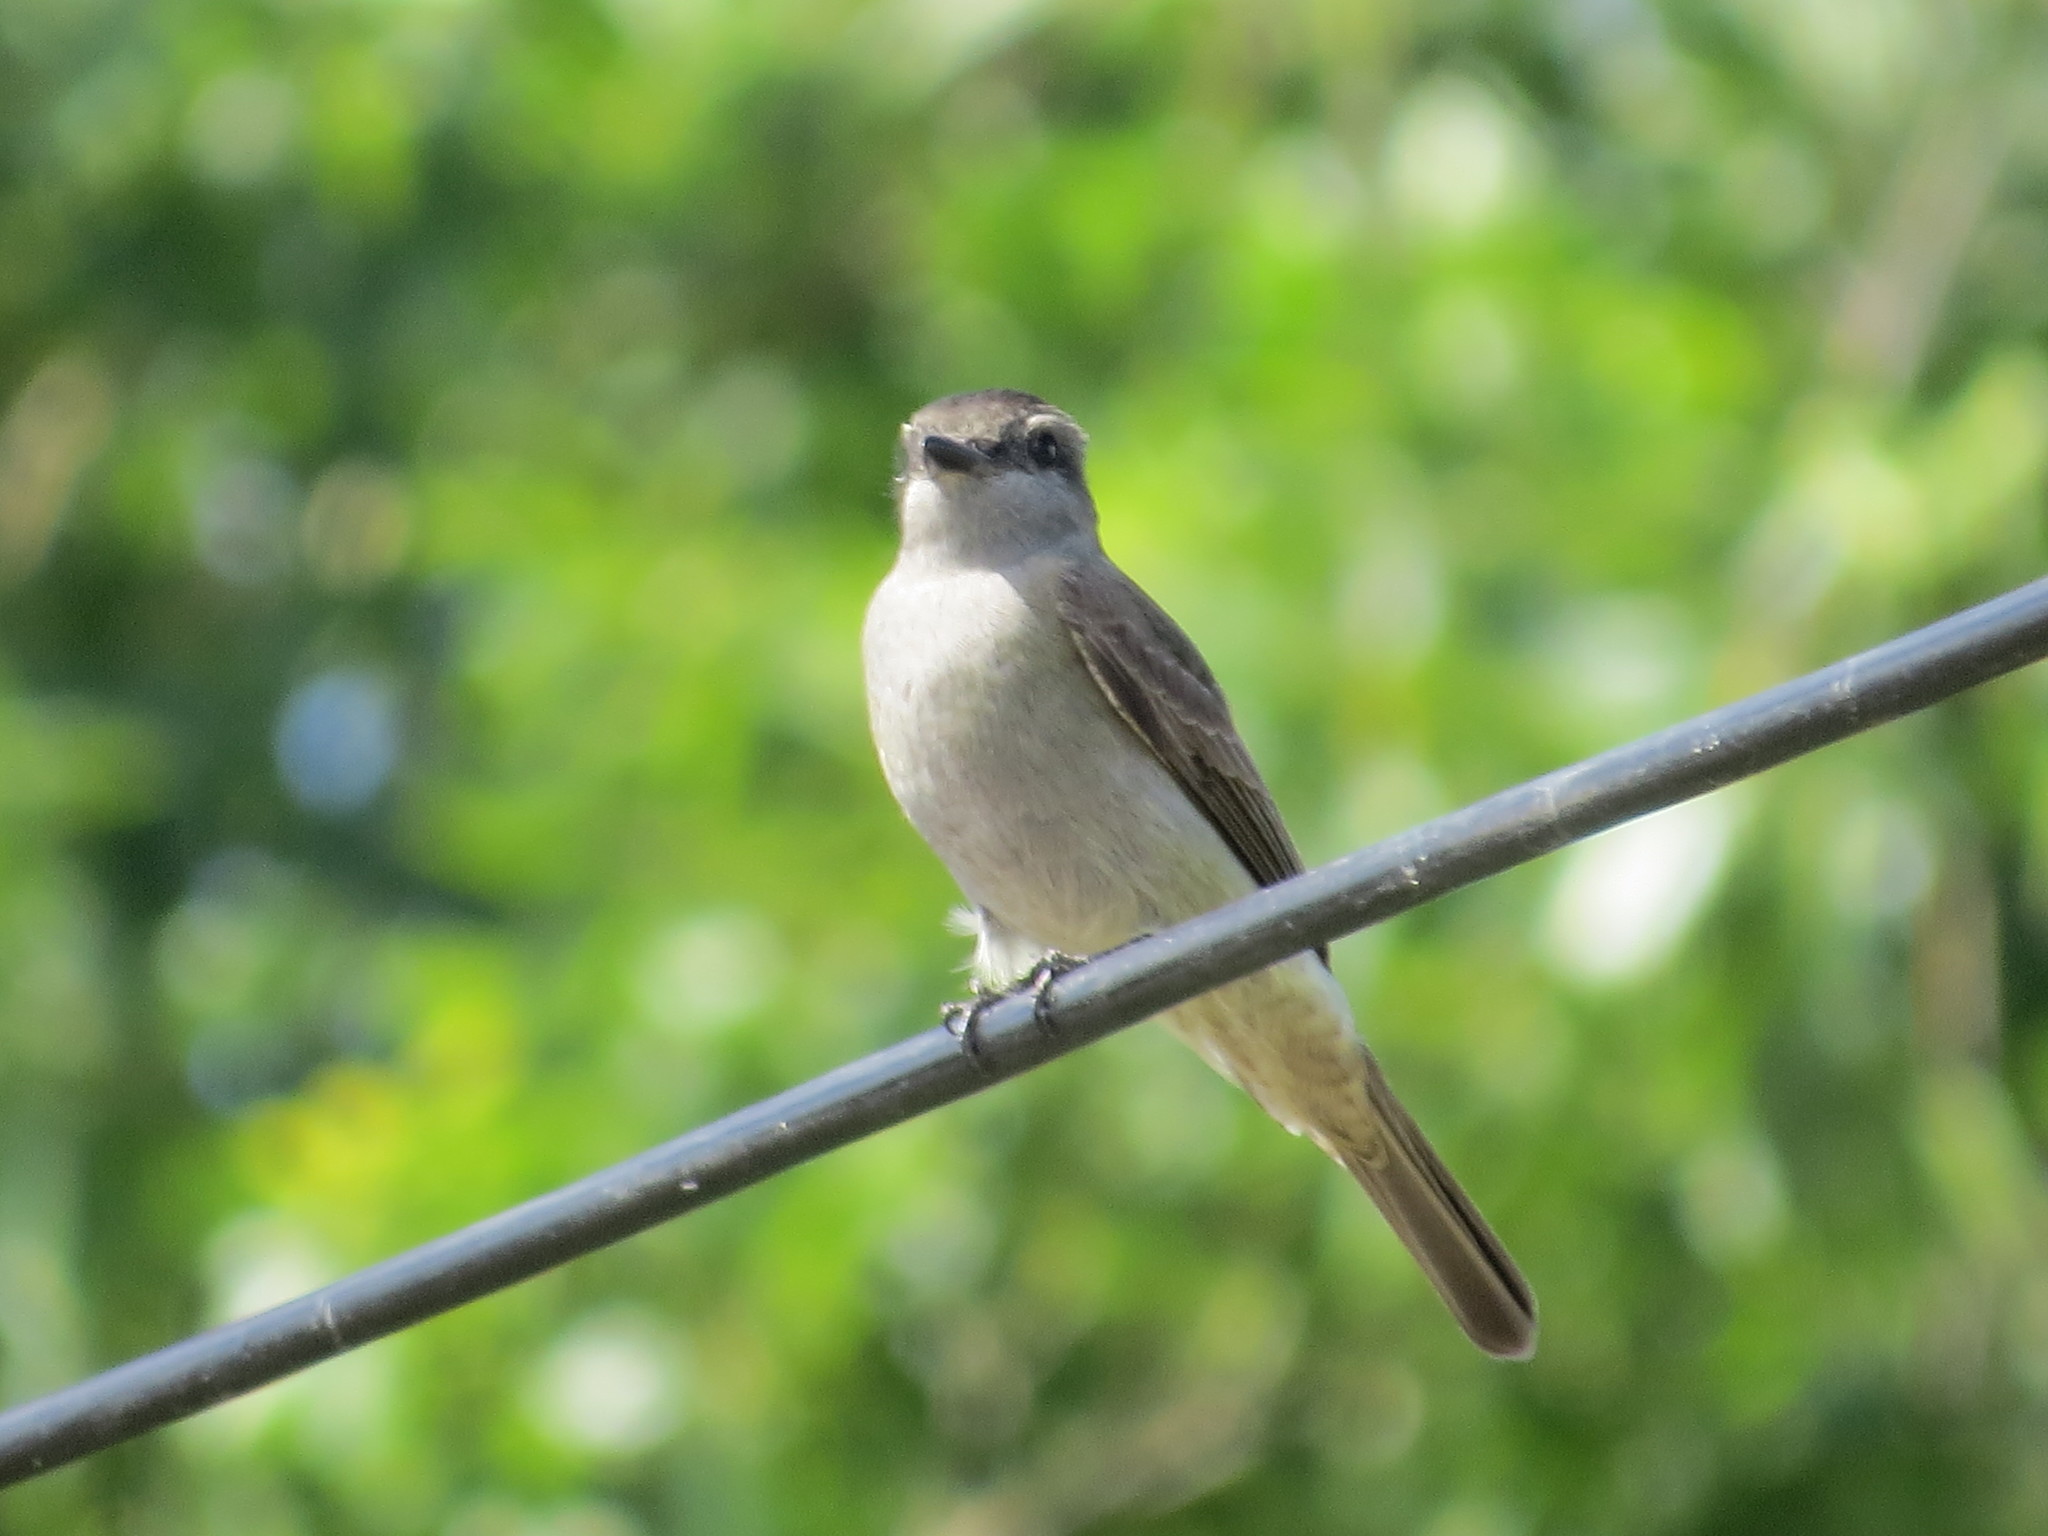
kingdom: Animalia
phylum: Chordata
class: Aves
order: Passeriformes
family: Tyrannidae
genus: Empidonomus
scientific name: Empidonomus aurantioatrocristatus
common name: Crowned slaty flycatcher
